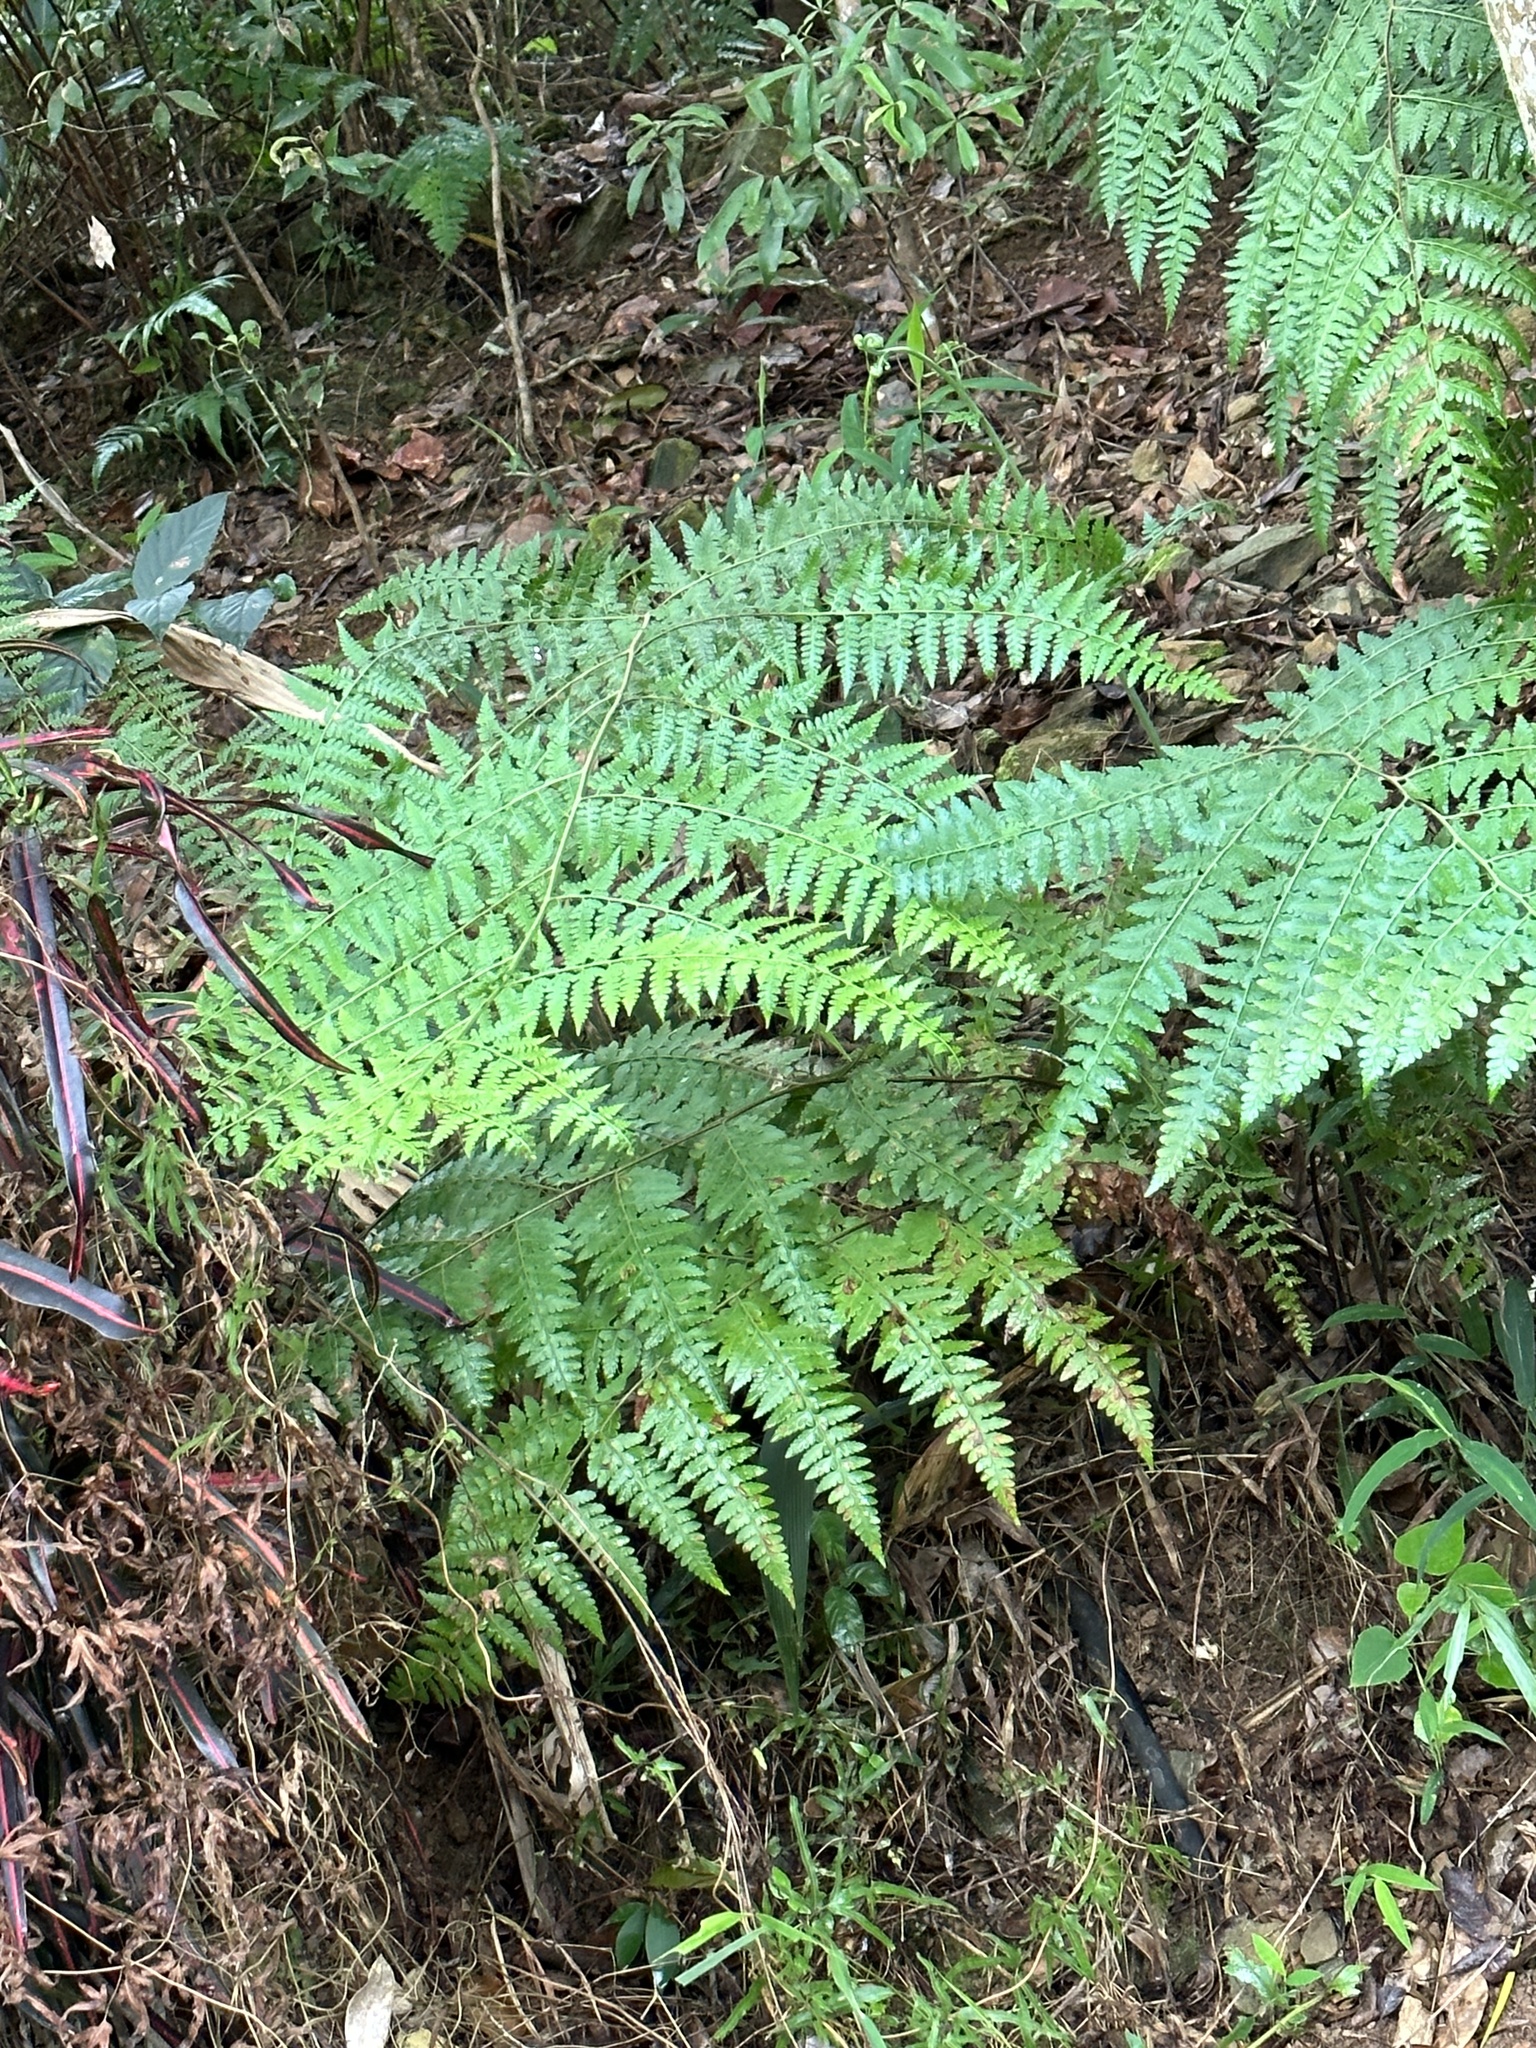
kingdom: Plantae
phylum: Tracheophyta
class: Polypodiopsida
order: Polypodiales
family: Dennstaedtiaceae
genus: Microlepia
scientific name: Microlepia nepalensis
